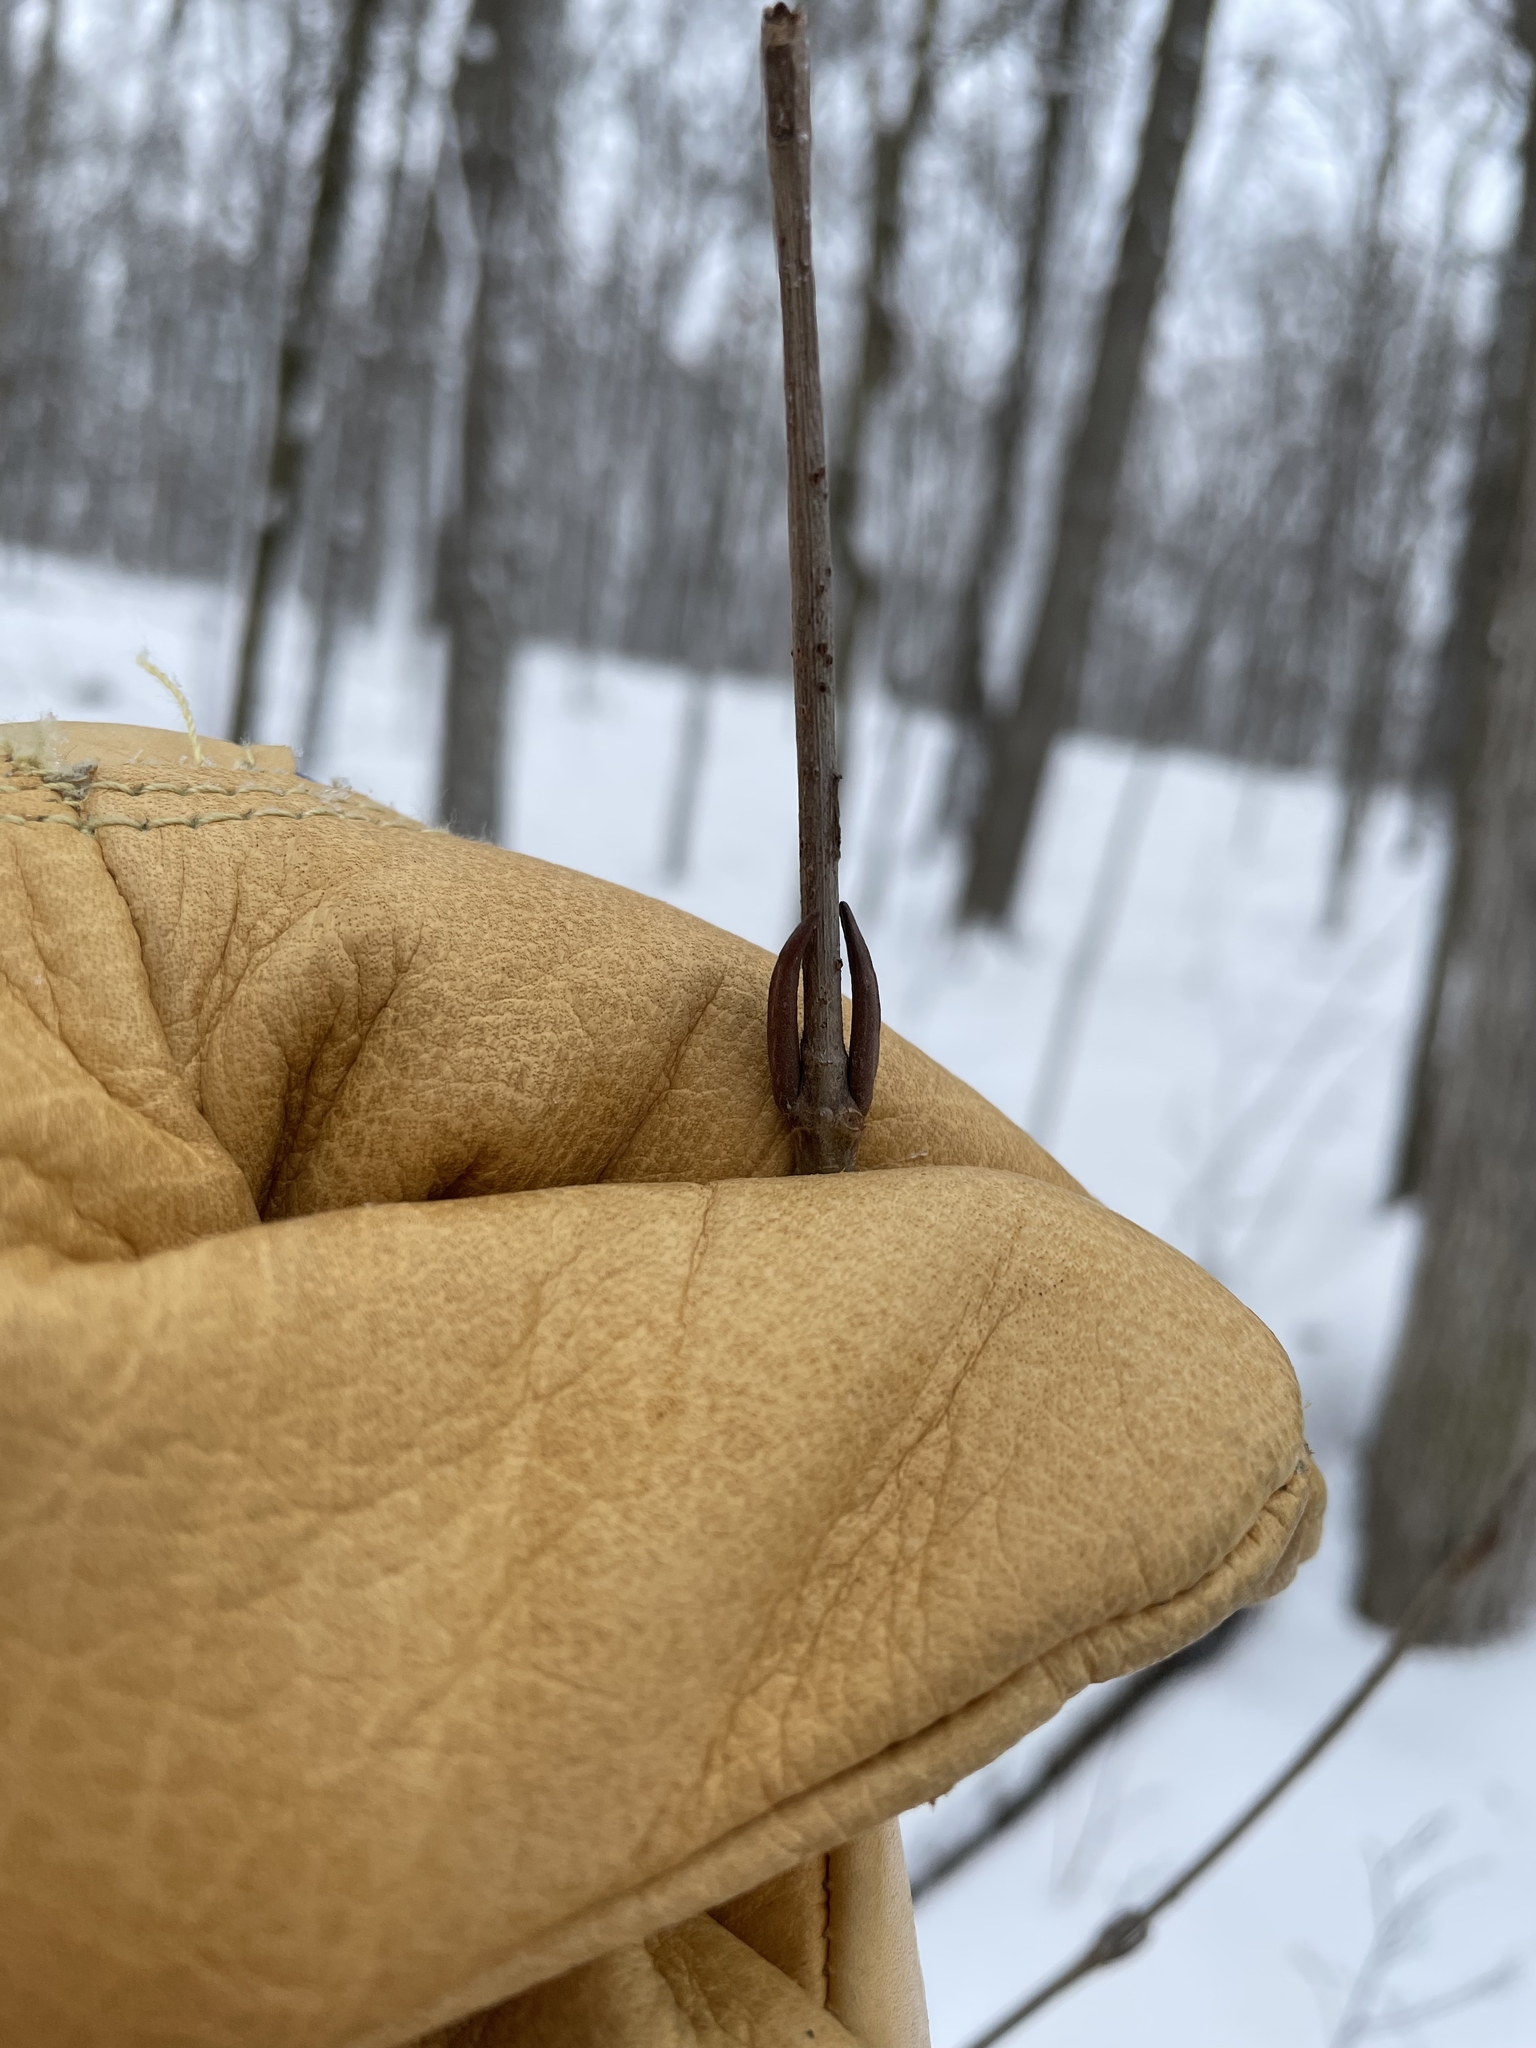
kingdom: Plantae
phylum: Tracheophyta
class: Magnoliopsida
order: Dipsacales
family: Viburnaceae
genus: Viburnum
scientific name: Viburnum lentago
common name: Black haw
